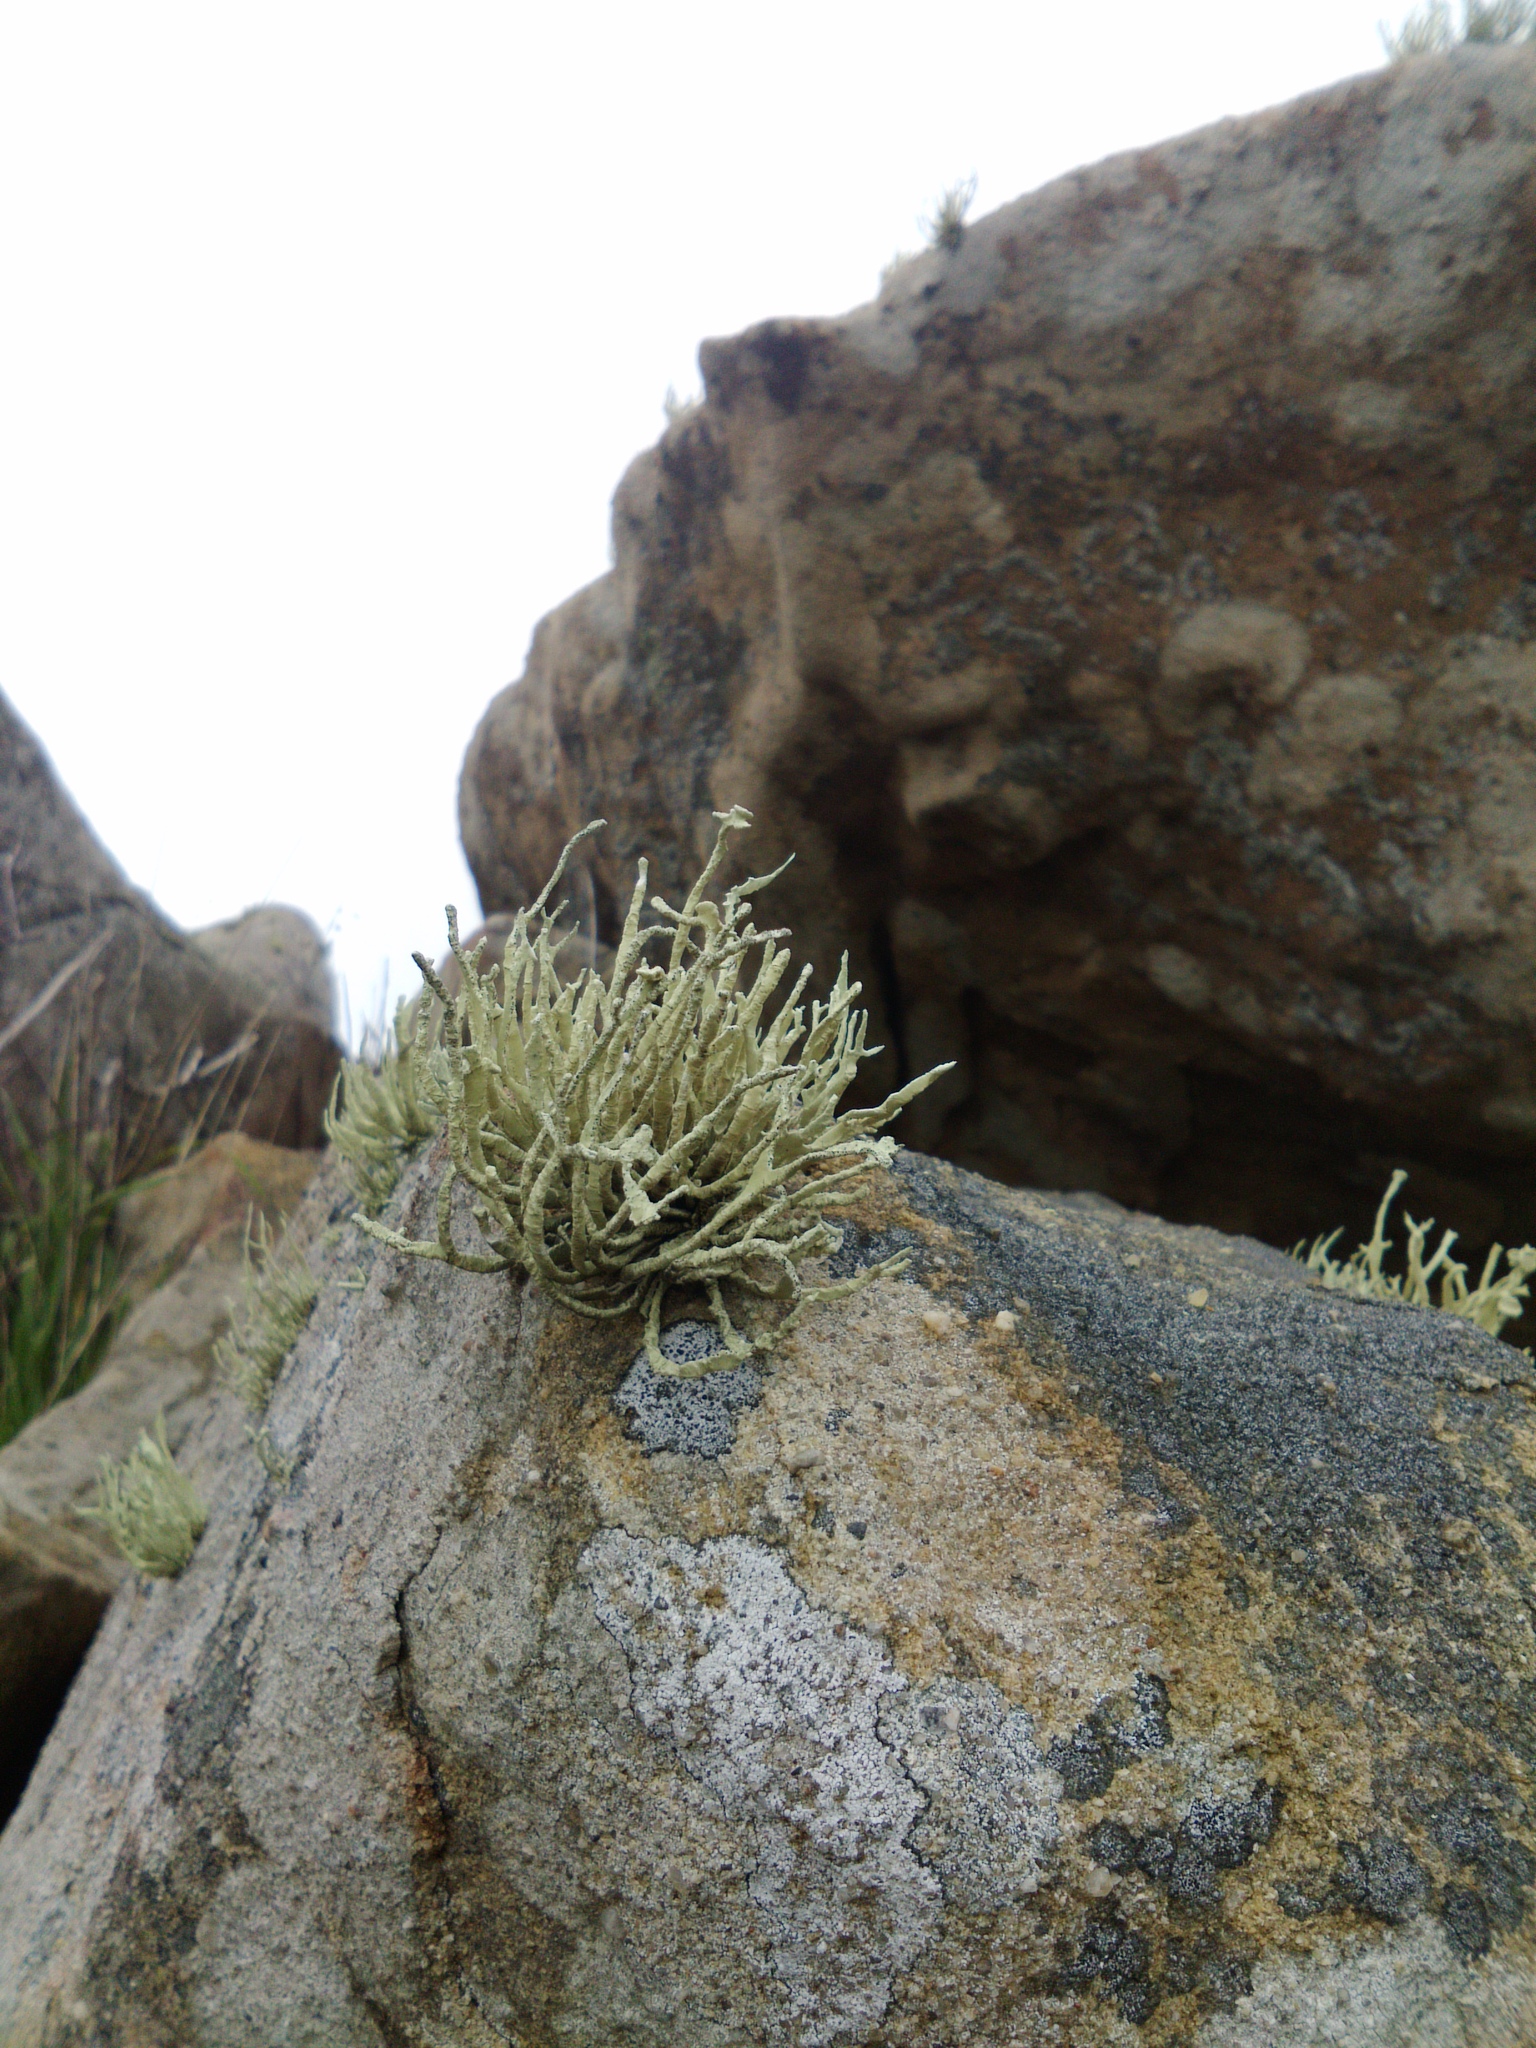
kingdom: Fungi
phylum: Ascomycota
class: Lecanoromycetes
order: Lecanorales
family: Ramalinaceae
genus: Niebla
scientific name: Niebla homalea
